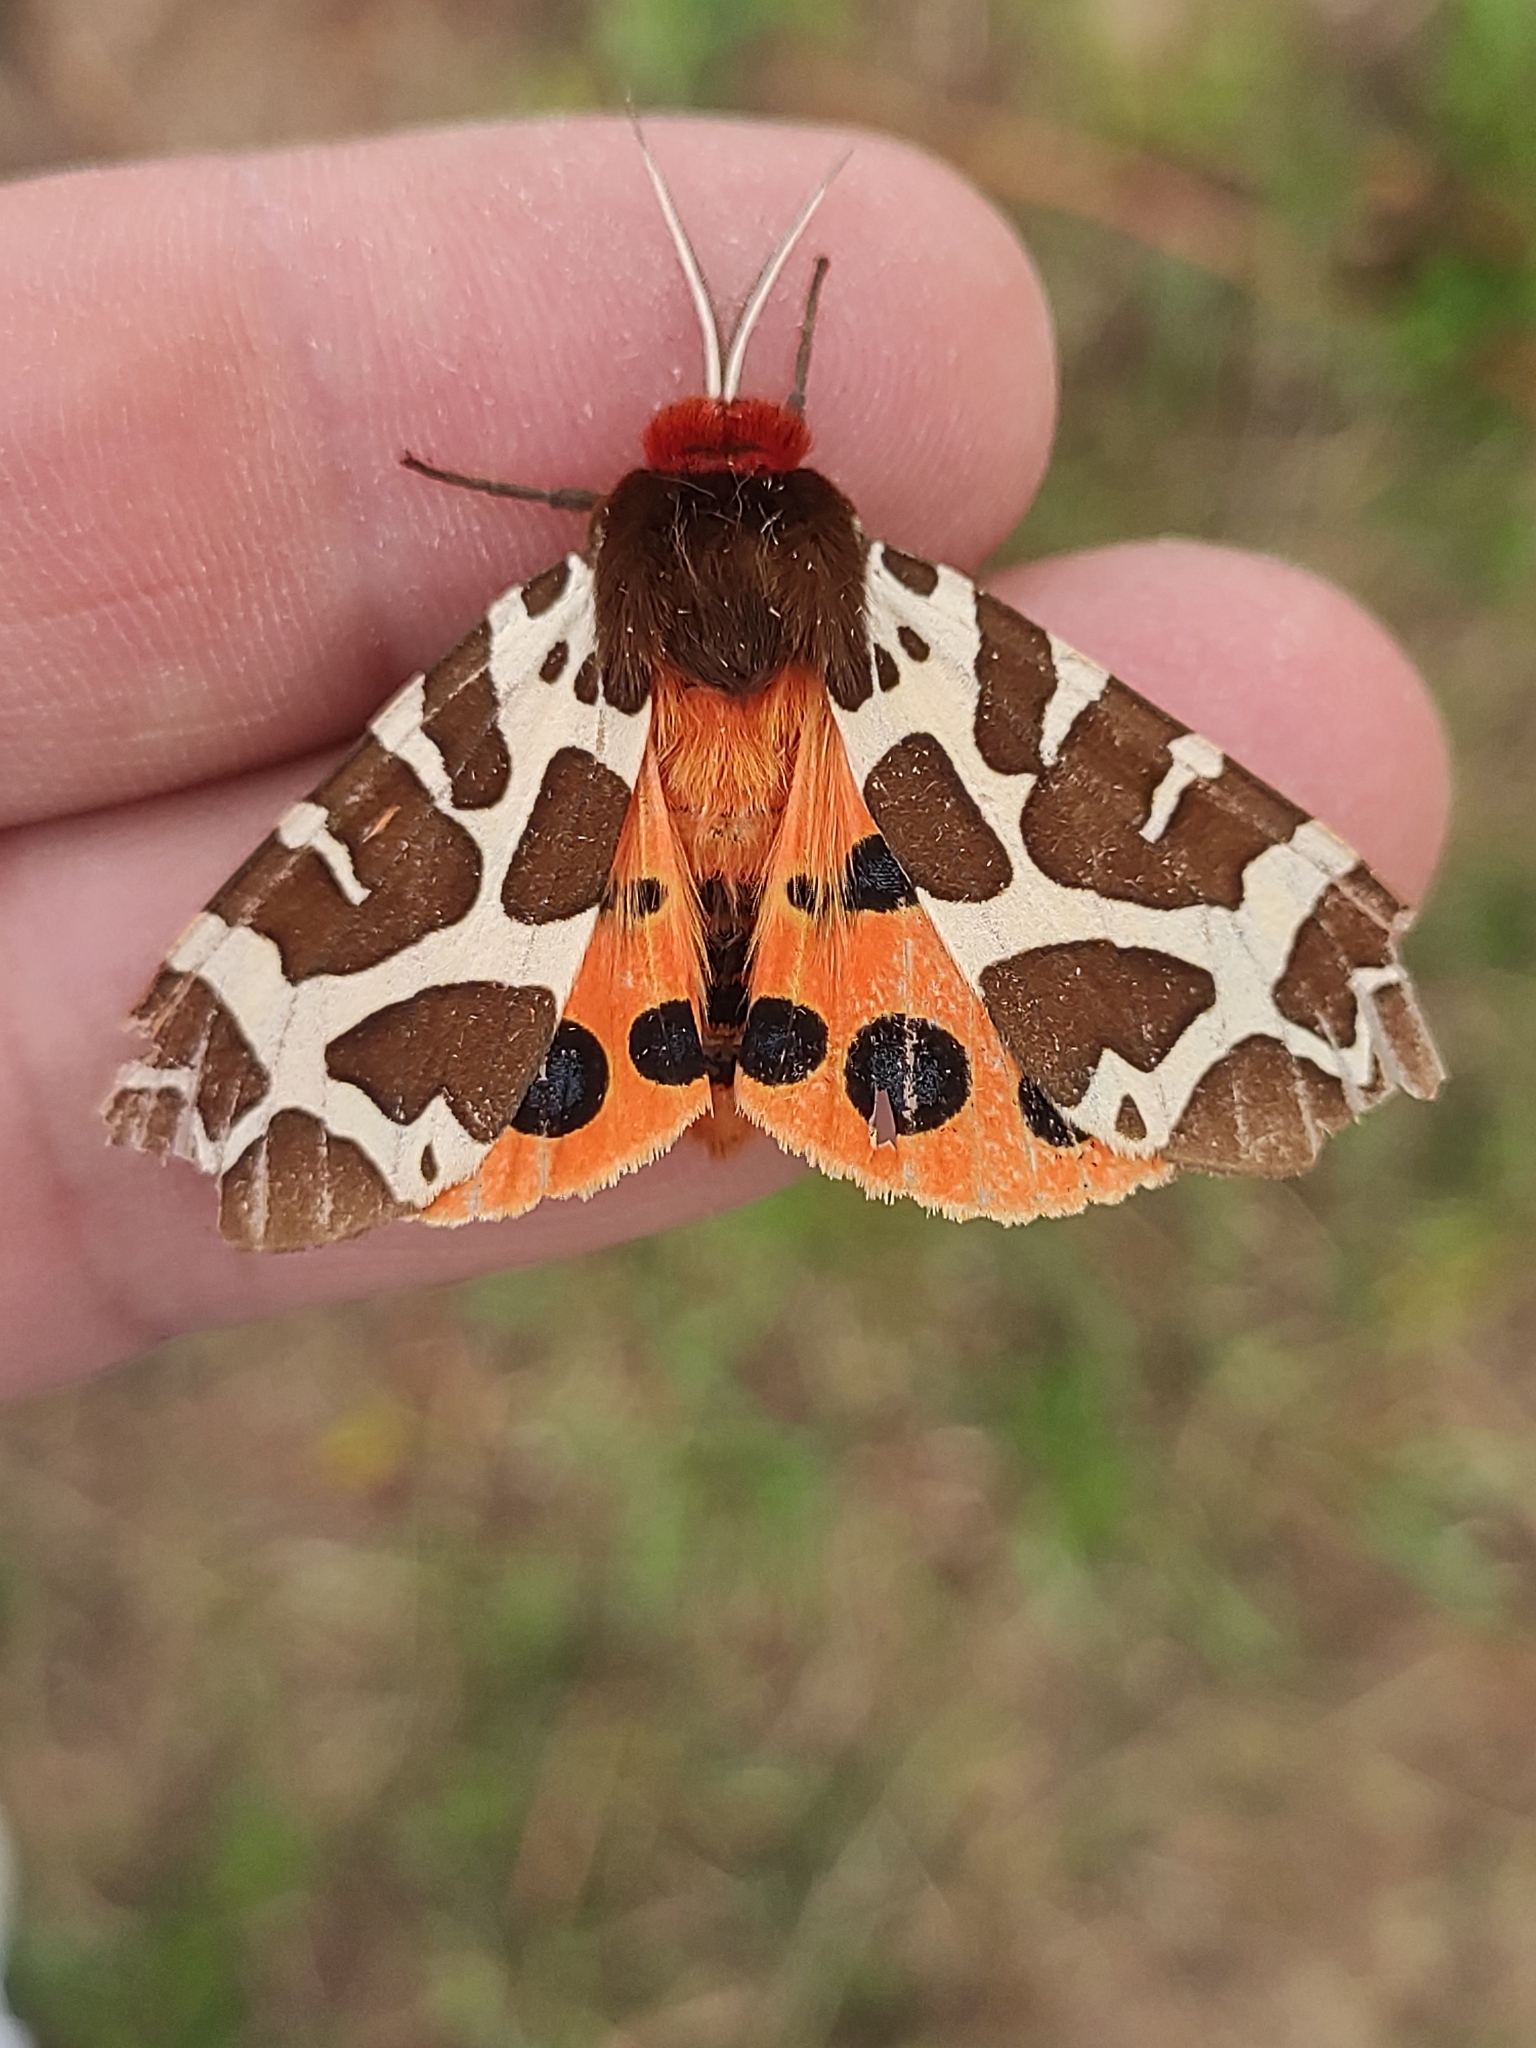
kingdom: Animalia
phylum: Arthropoda
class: Insecta
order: Lepidoptera
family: Erebidae
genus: Arctia
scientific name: Arctia caja
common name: Garden tiger
